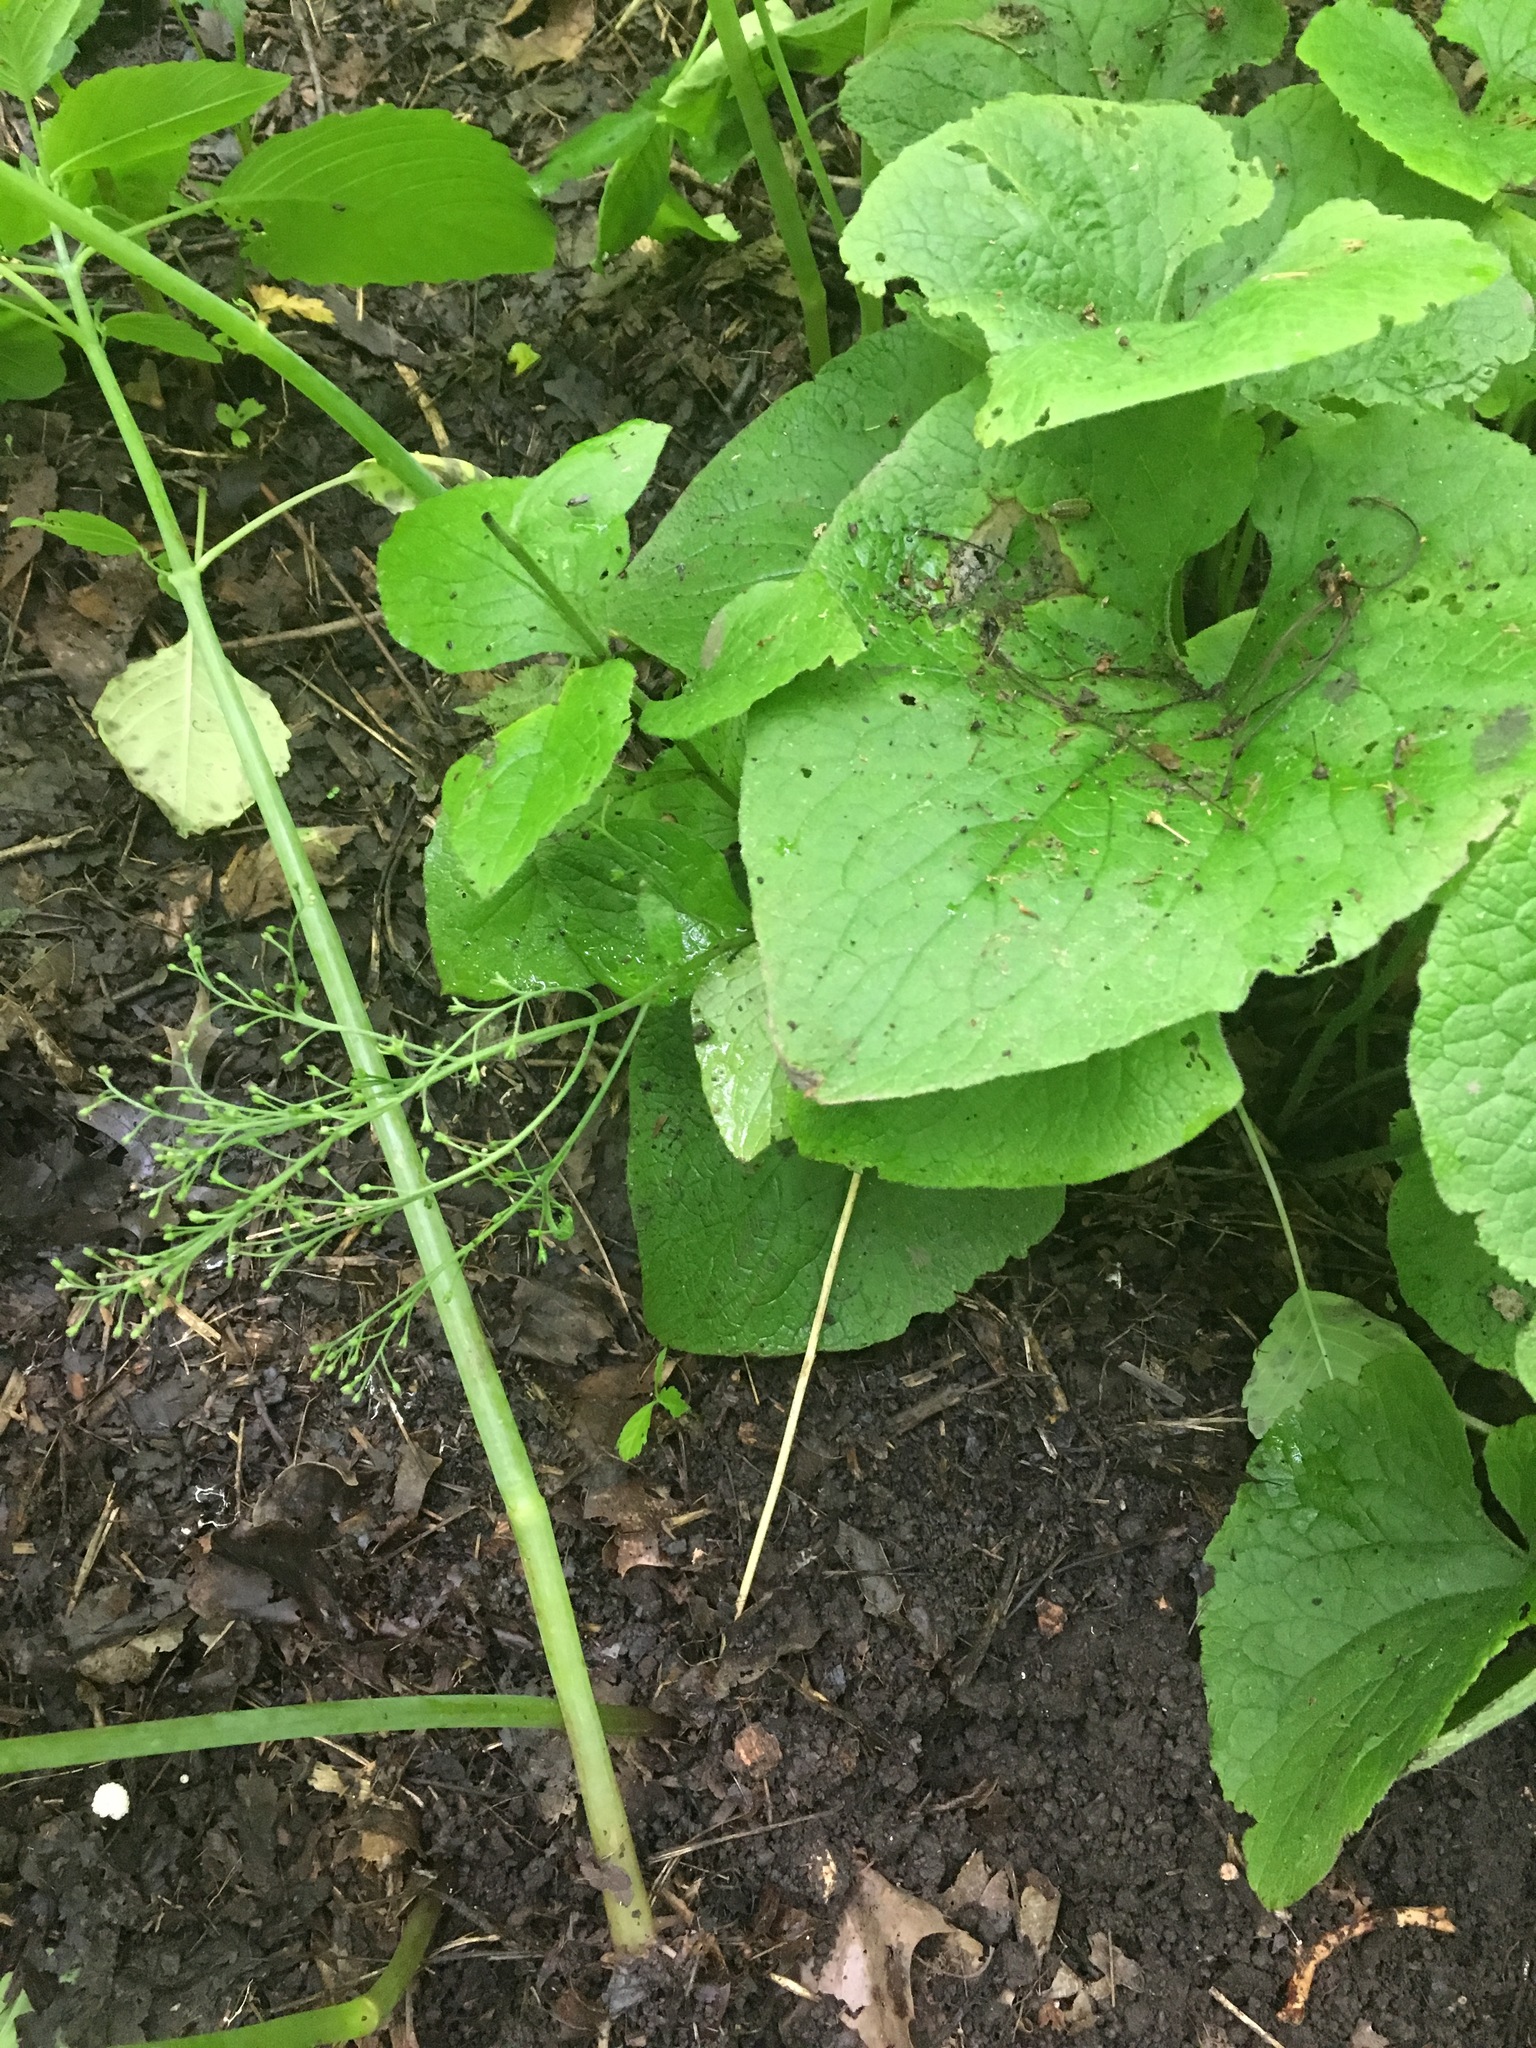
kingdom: Plantae
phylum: Tracheophyta
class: Magnoliopsida
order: Boraginales
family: Boraginaceae
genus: Brunnera
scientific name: Brunnera macrophylla
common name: Great forget-me-not
